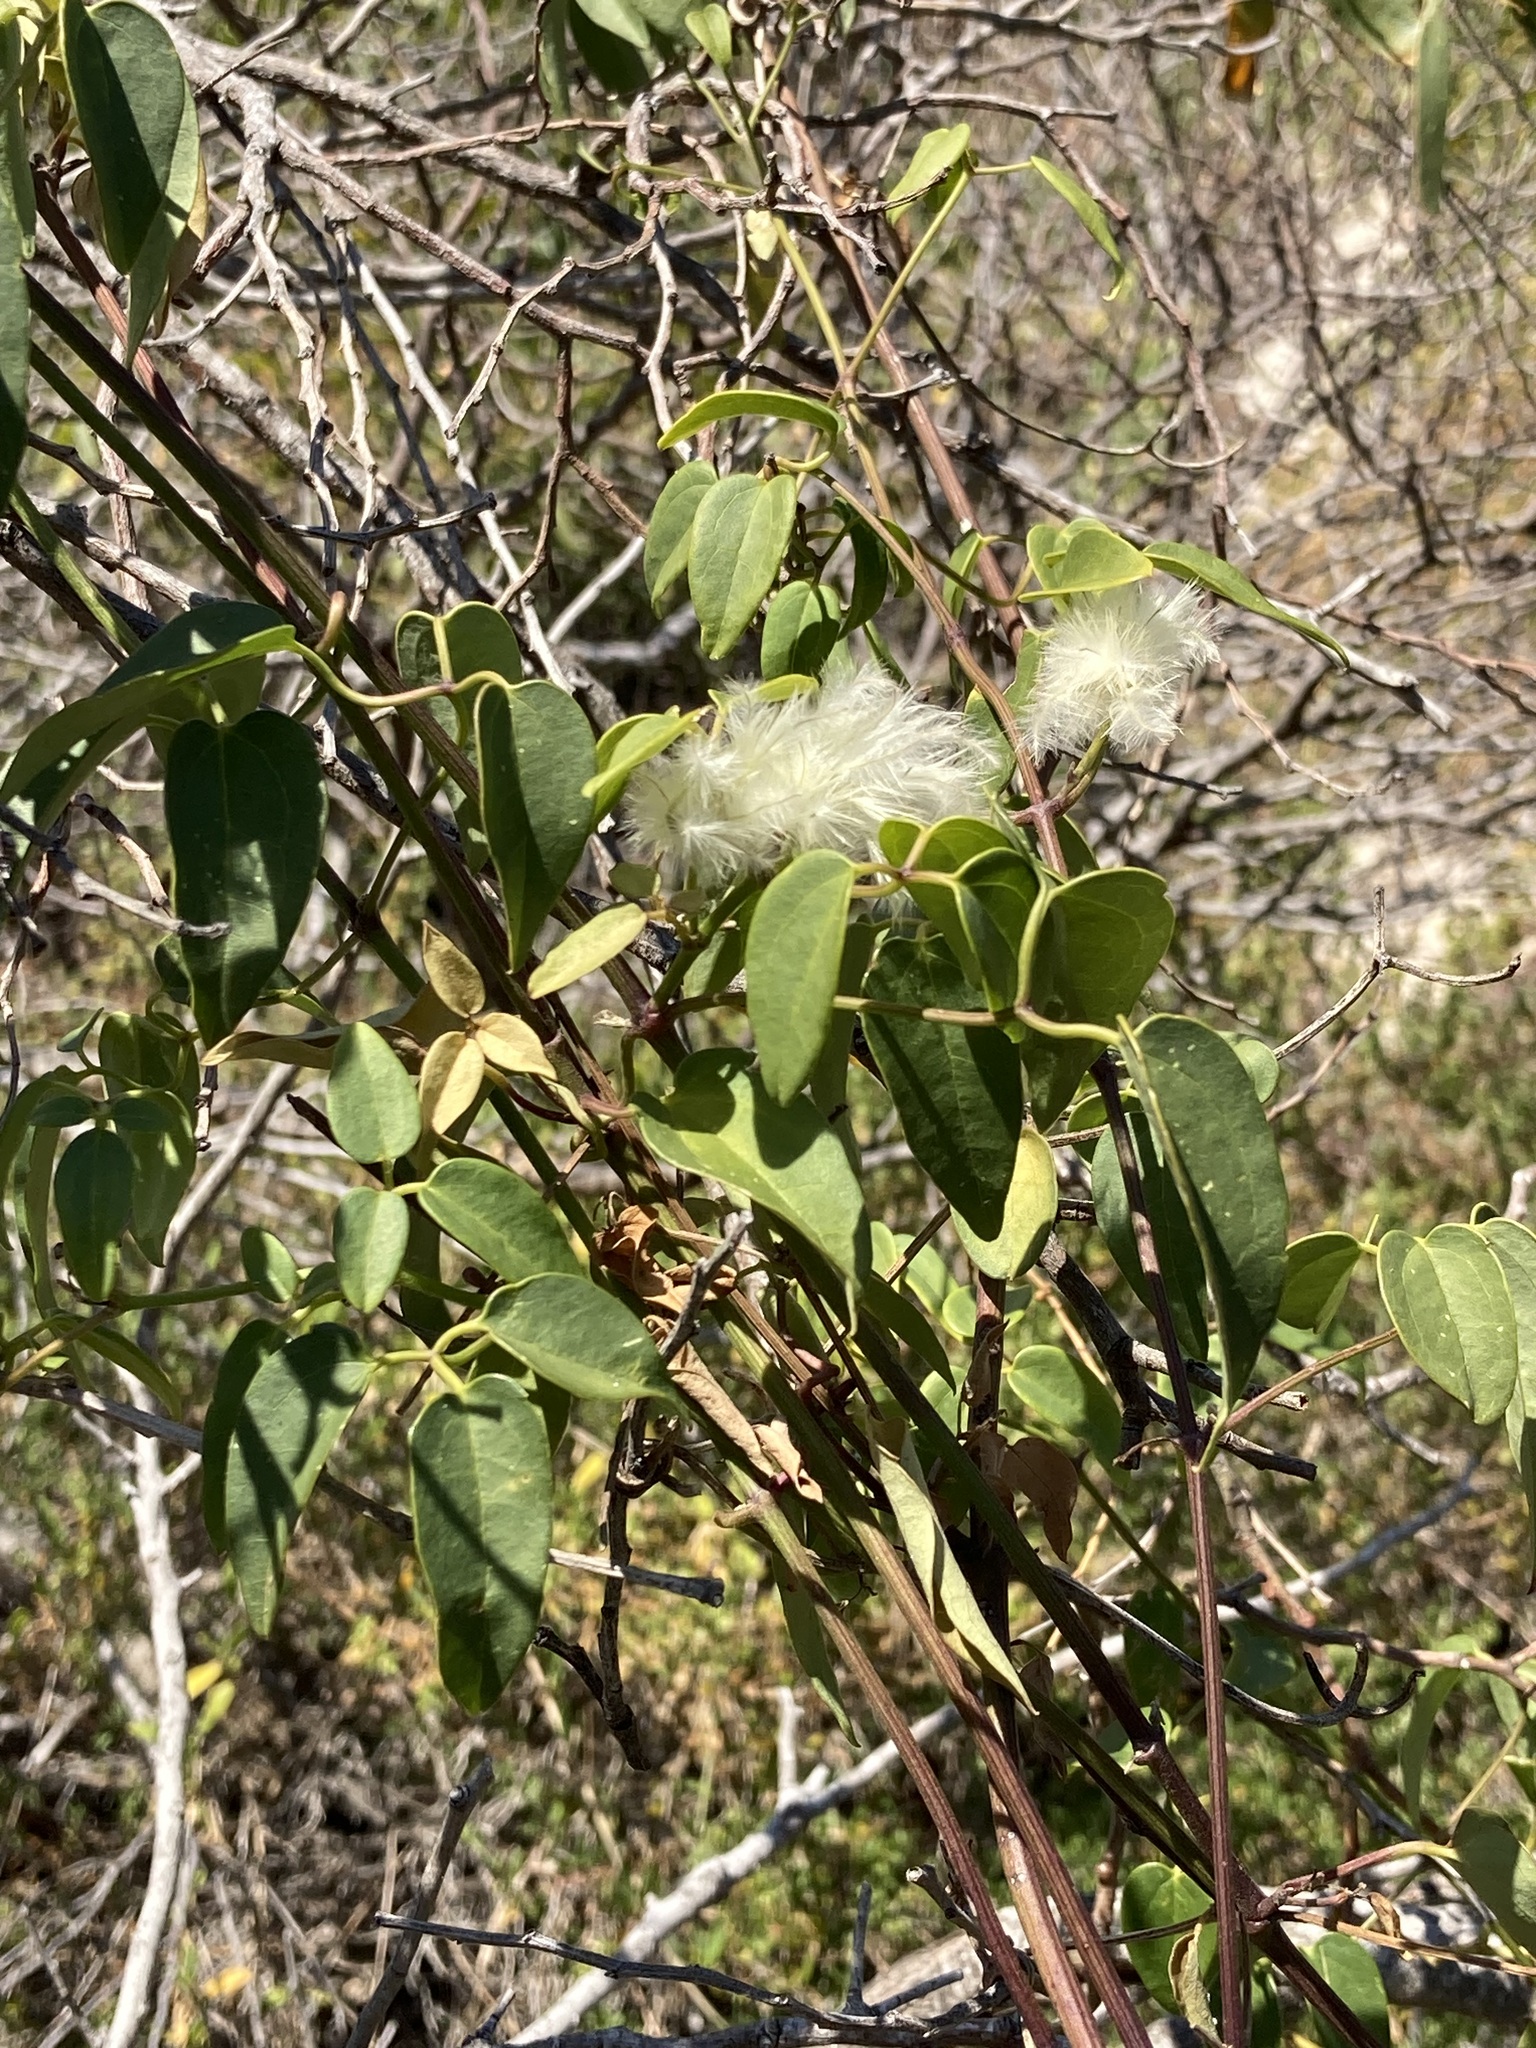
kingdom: Plantae
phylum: Tracheophyta
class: Magnoliopsida
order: Ranunculales
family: Ranunculaceae
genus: Clematis
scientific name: Clematis pubescens
